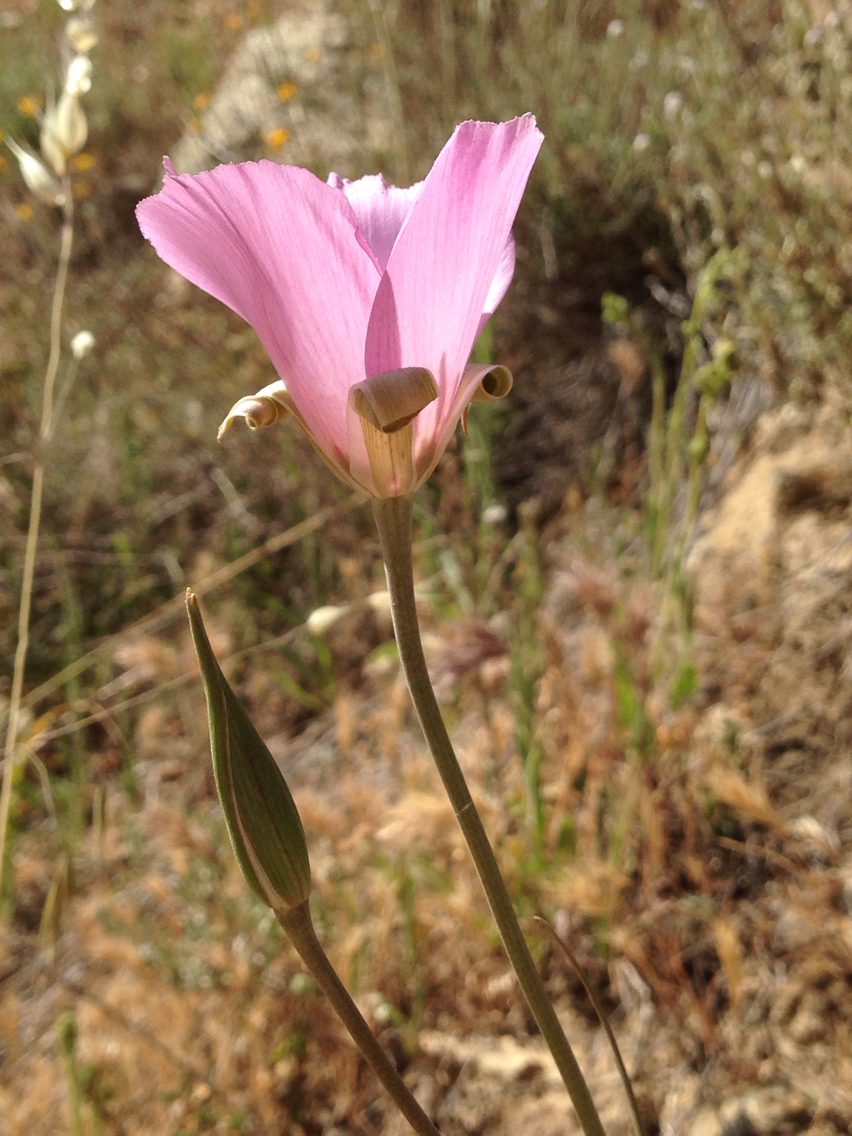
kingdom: Plantae
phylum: Tracheophyta
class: Liliopsida
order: Liliales
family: Liliaceae
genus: Calochortus
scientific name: Calochortus splendens
